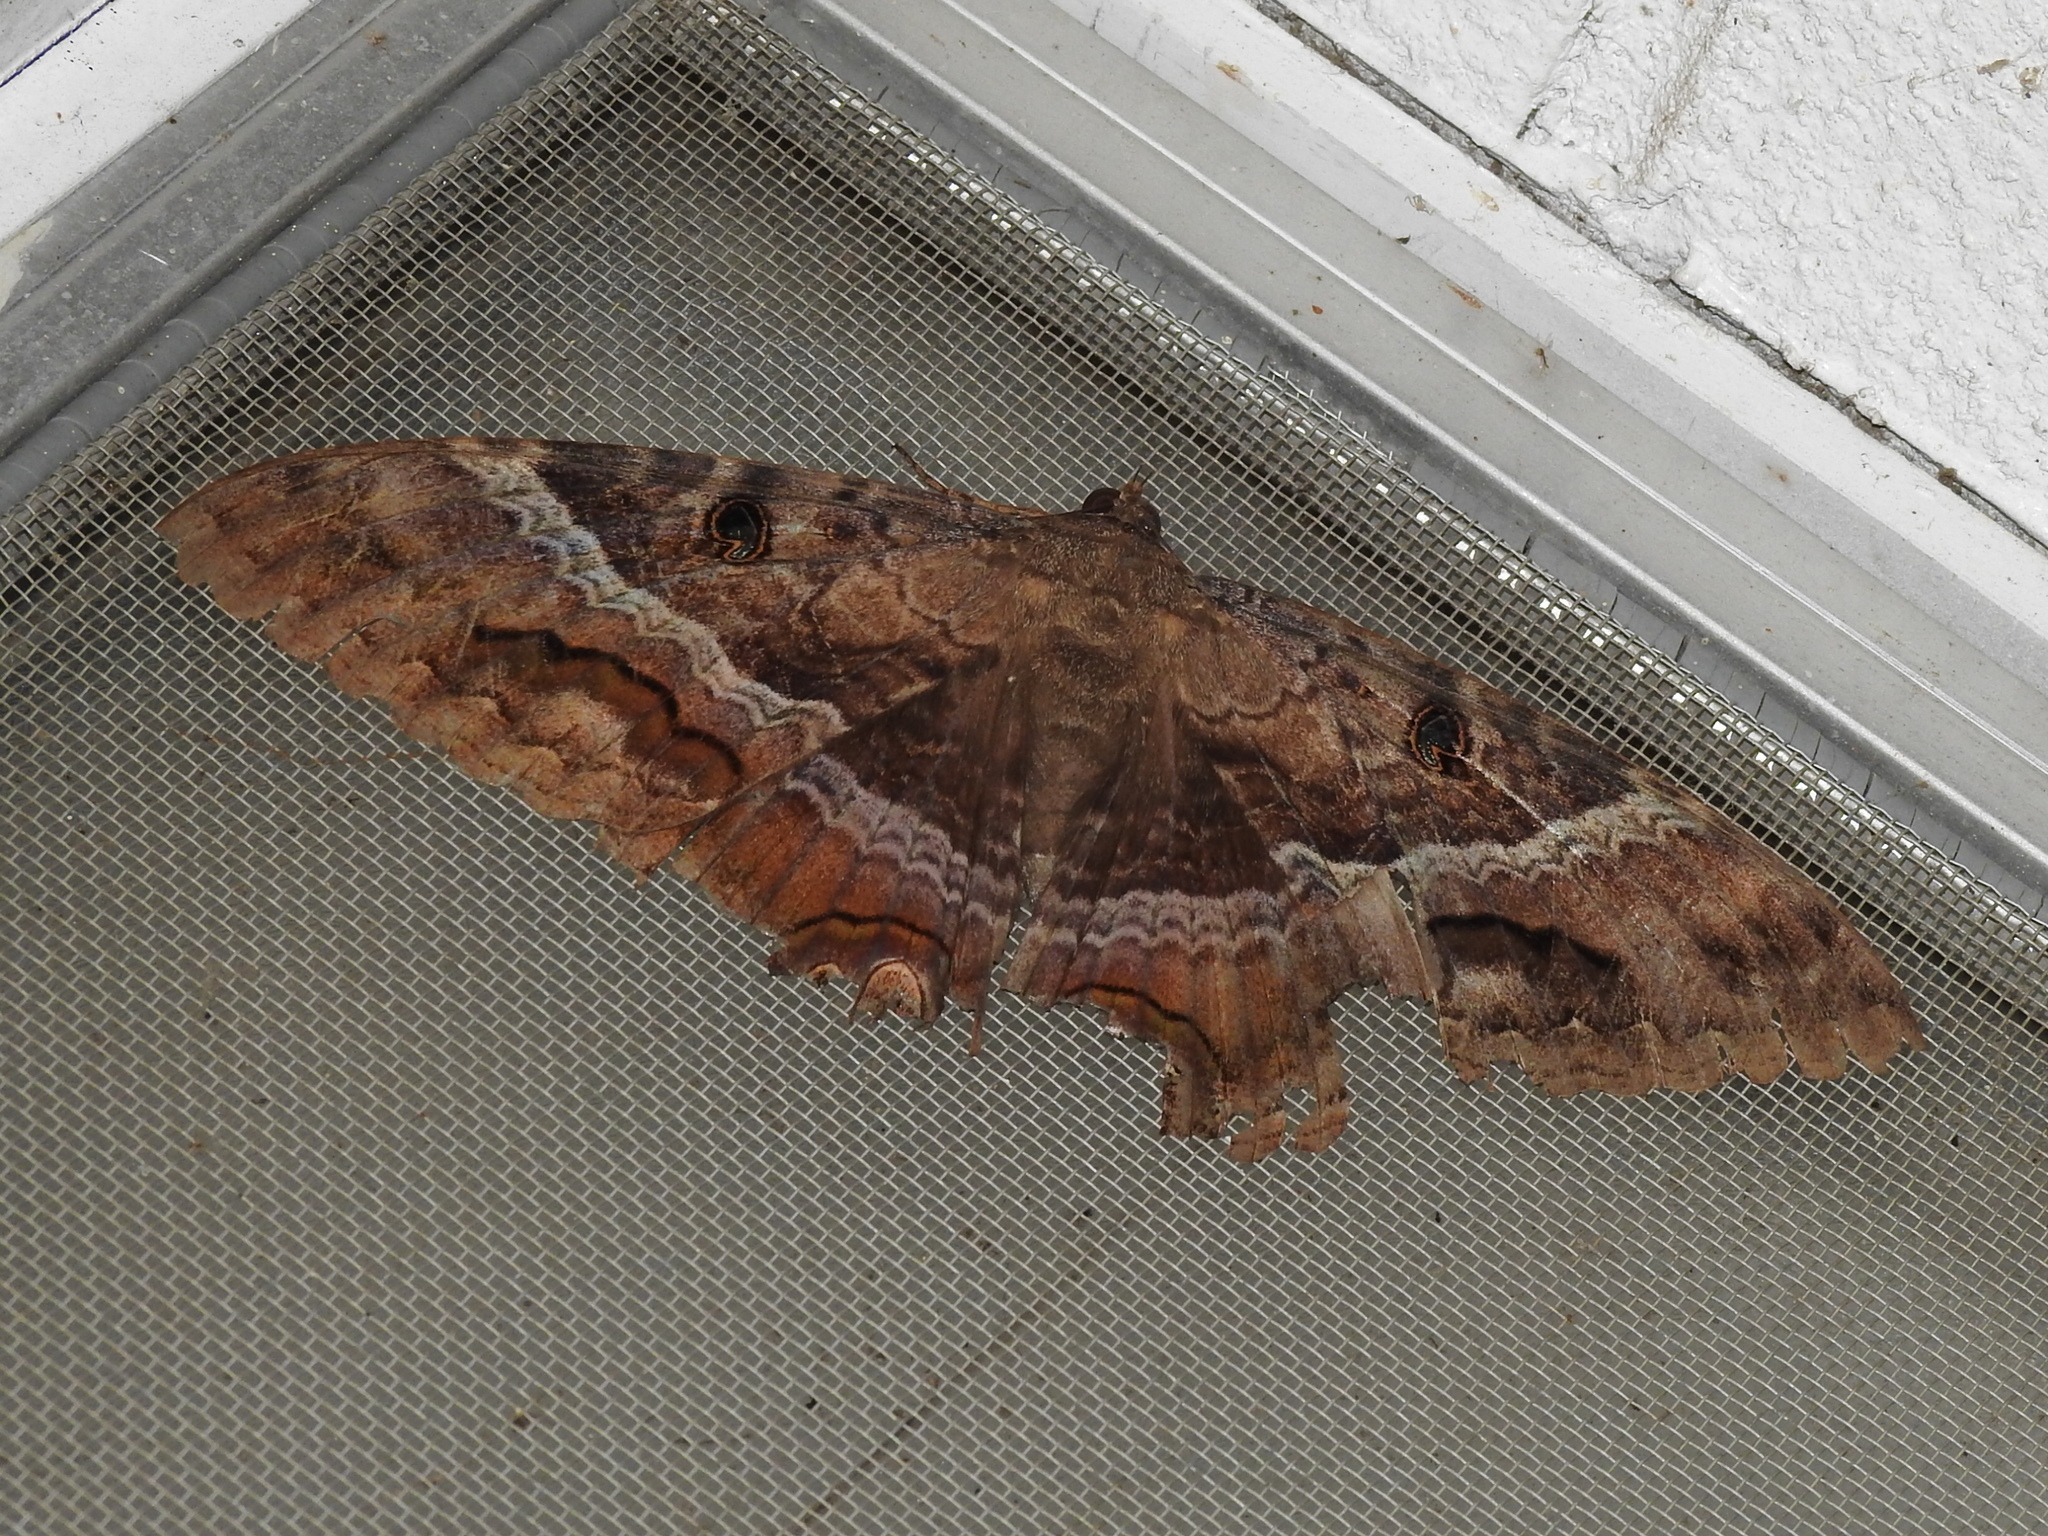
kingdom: Animalia
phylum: Arthropoda
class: Insecta
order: Lepidoptera
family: Erebidae
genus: Ascalapha
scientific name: Ascalapha odorata
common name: Black witch
